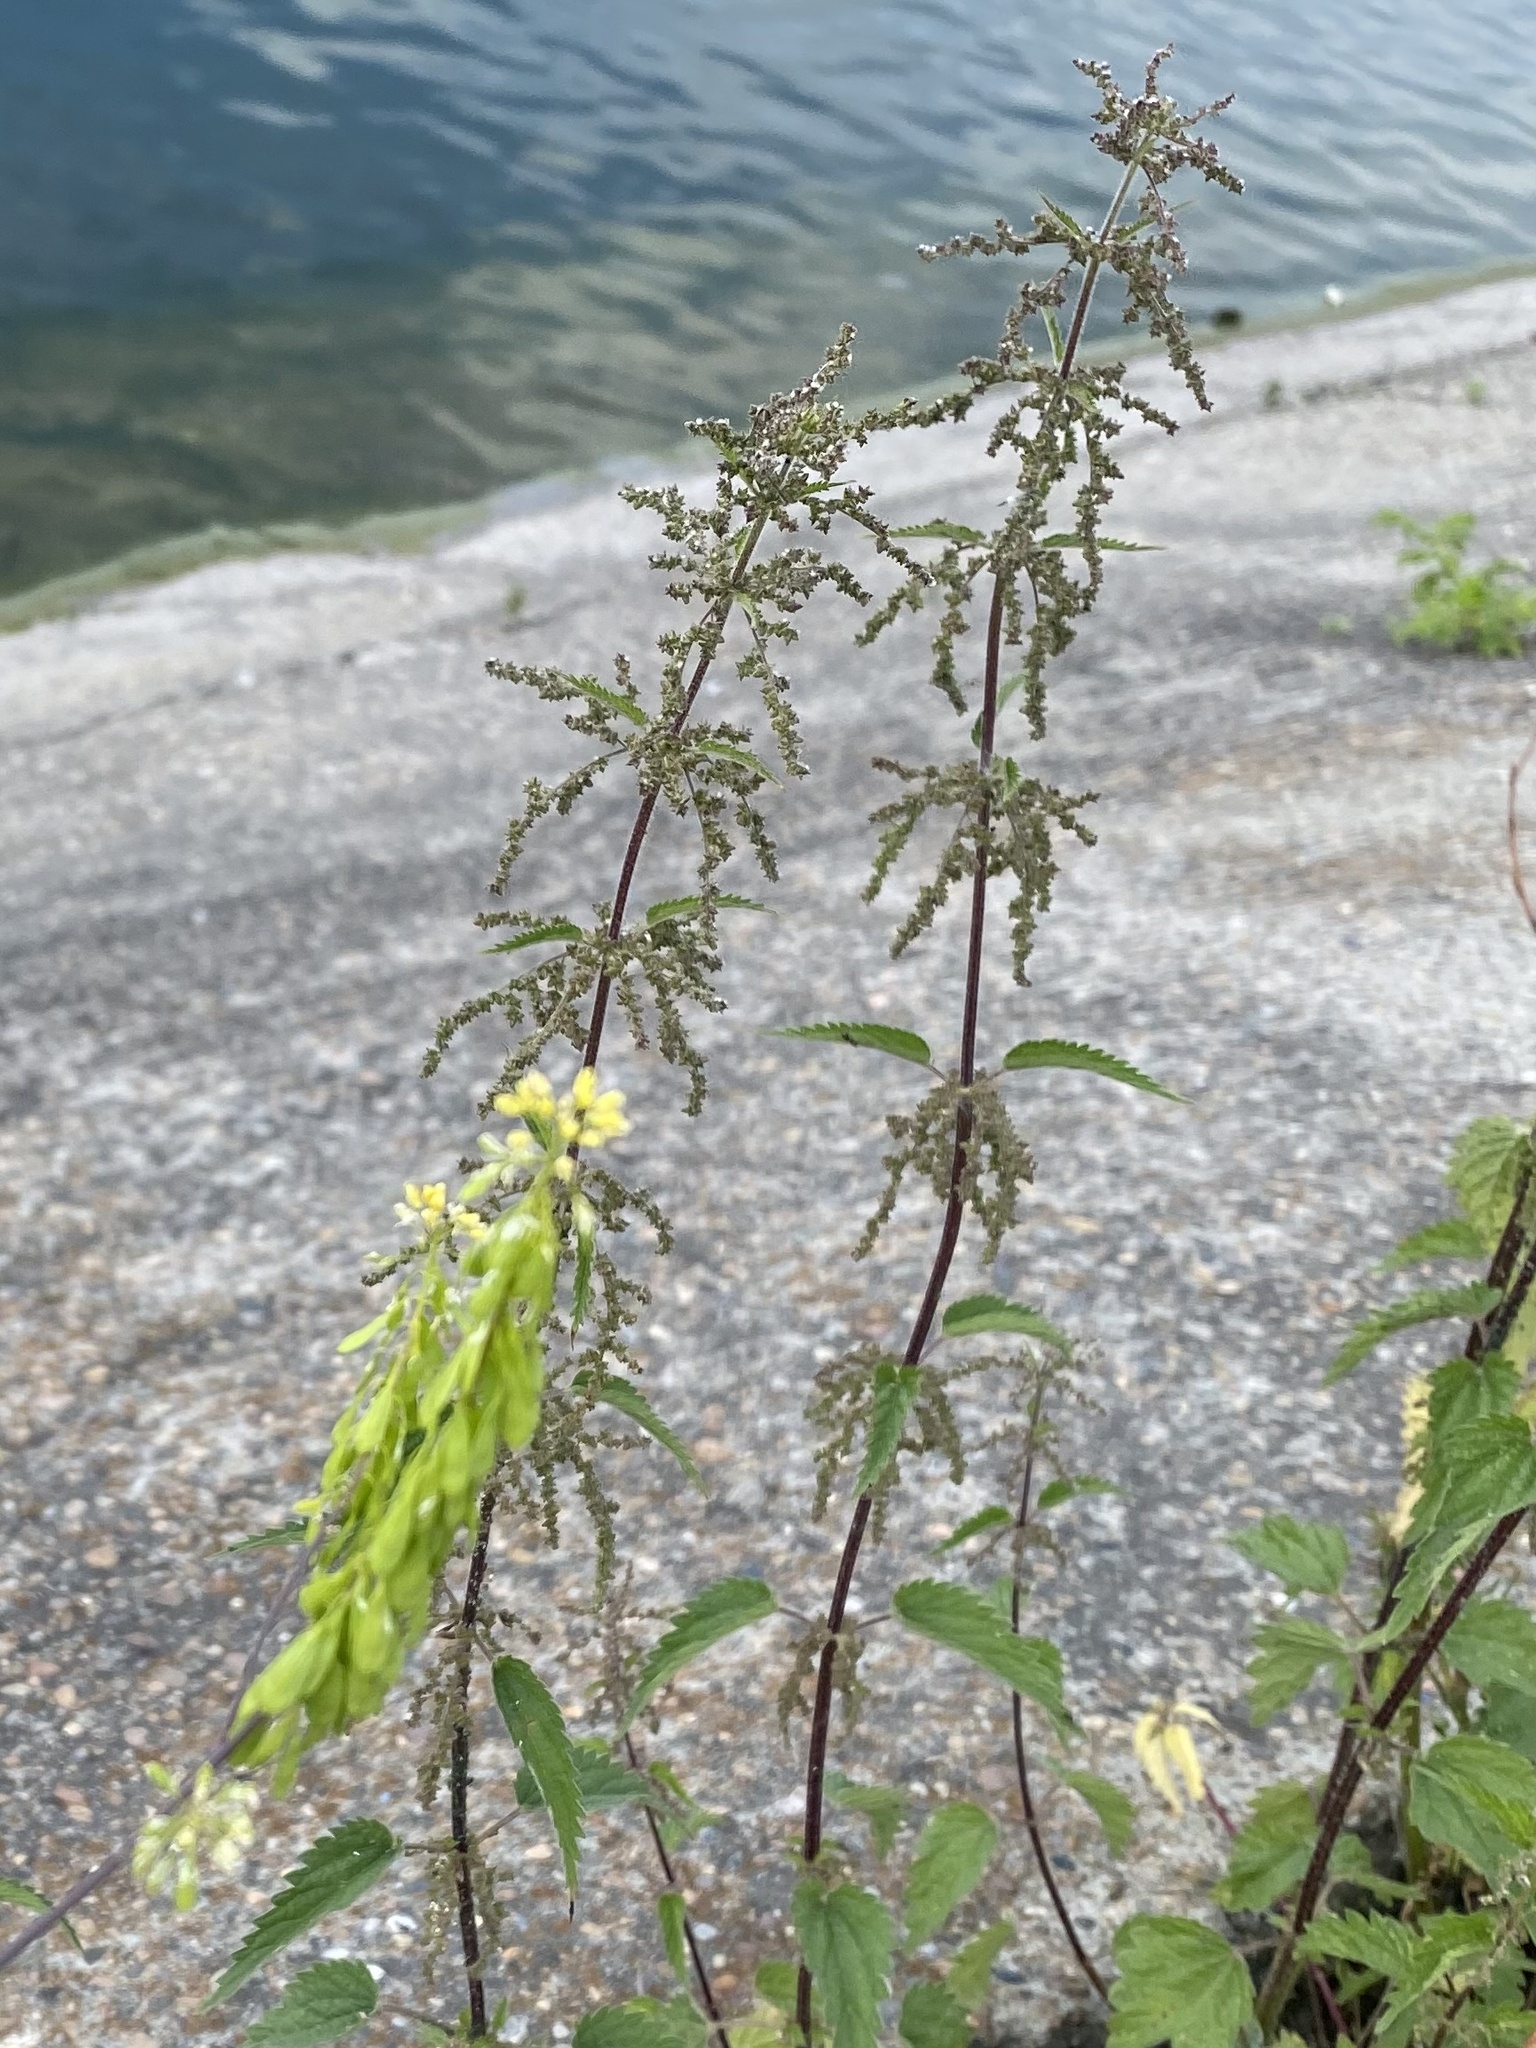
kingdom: Plantae
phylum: Tracheophyta
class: Magnoliopsida
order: Rosales
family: Urticaceae
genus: Urtica
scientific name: Urtica dioica
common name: Common nettle
